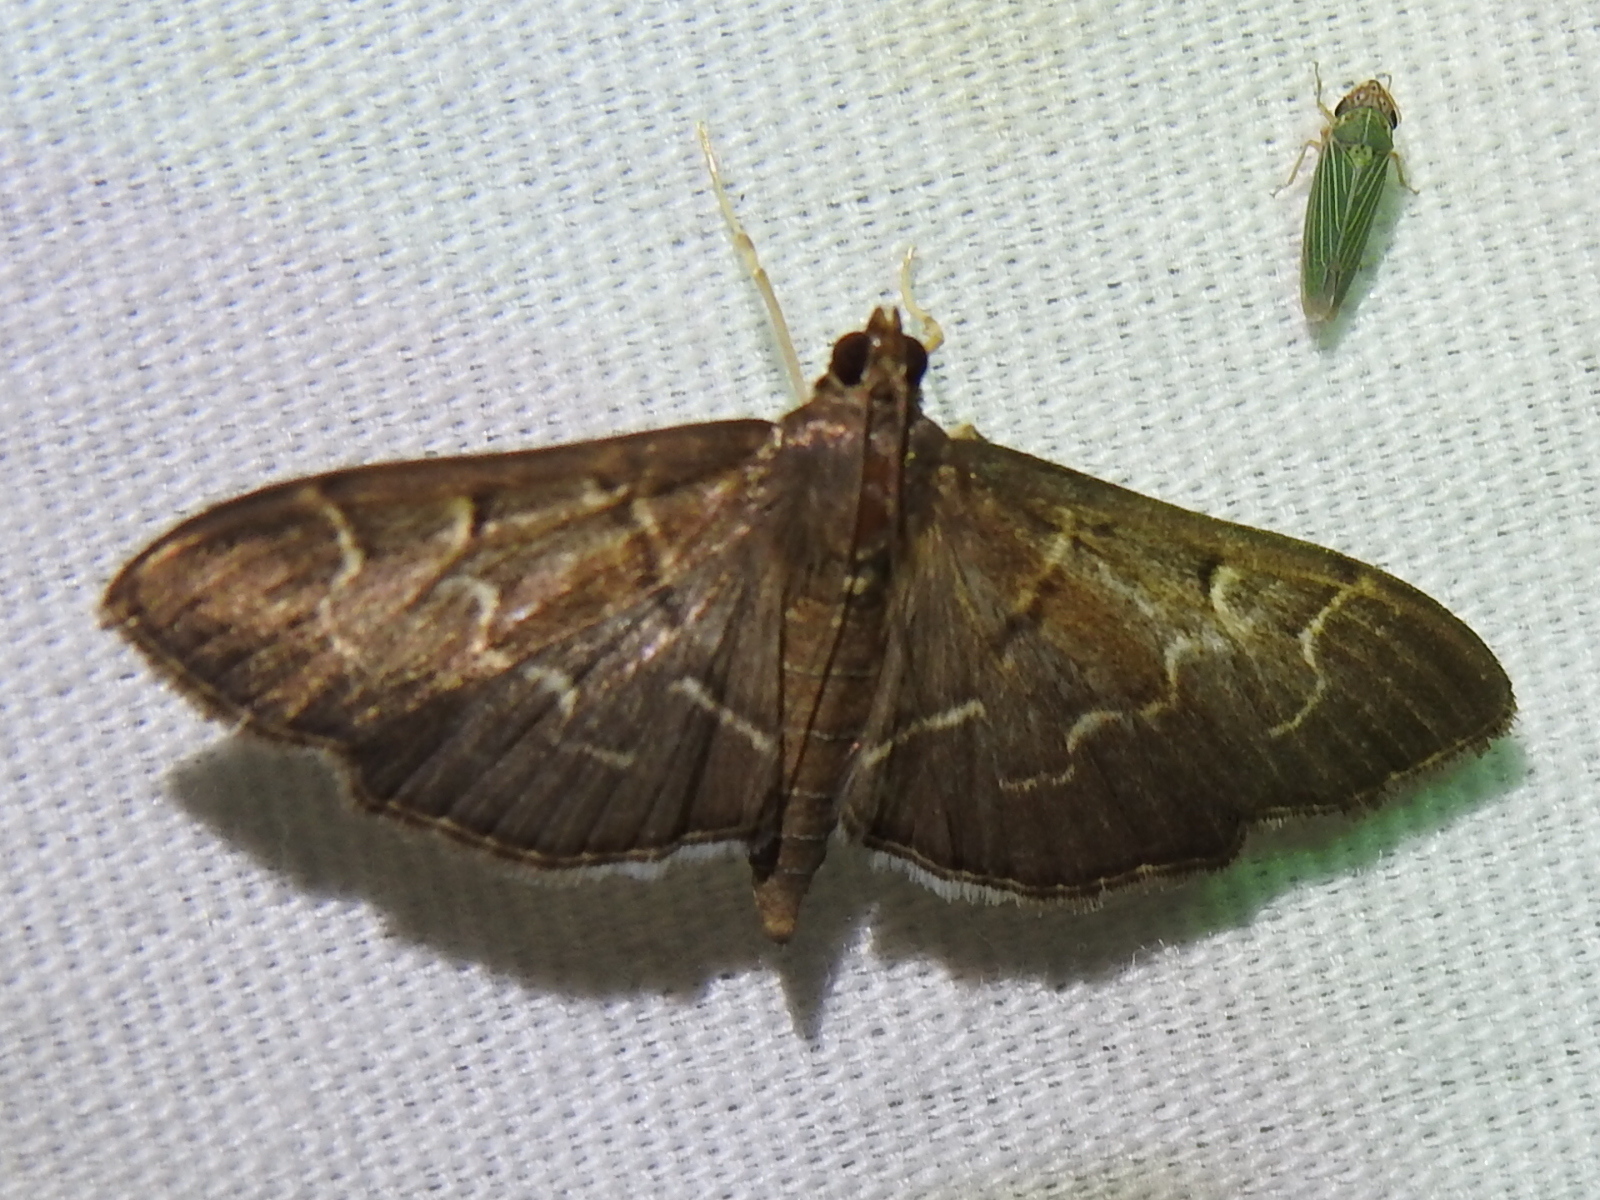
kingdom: Animalia
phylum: Arthropoda
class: Insecta
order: Lepidoptera
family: Crambidae
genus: Pilocrocis
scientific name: Pilocrocis ramentalis
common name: Scraped pilocrocis
